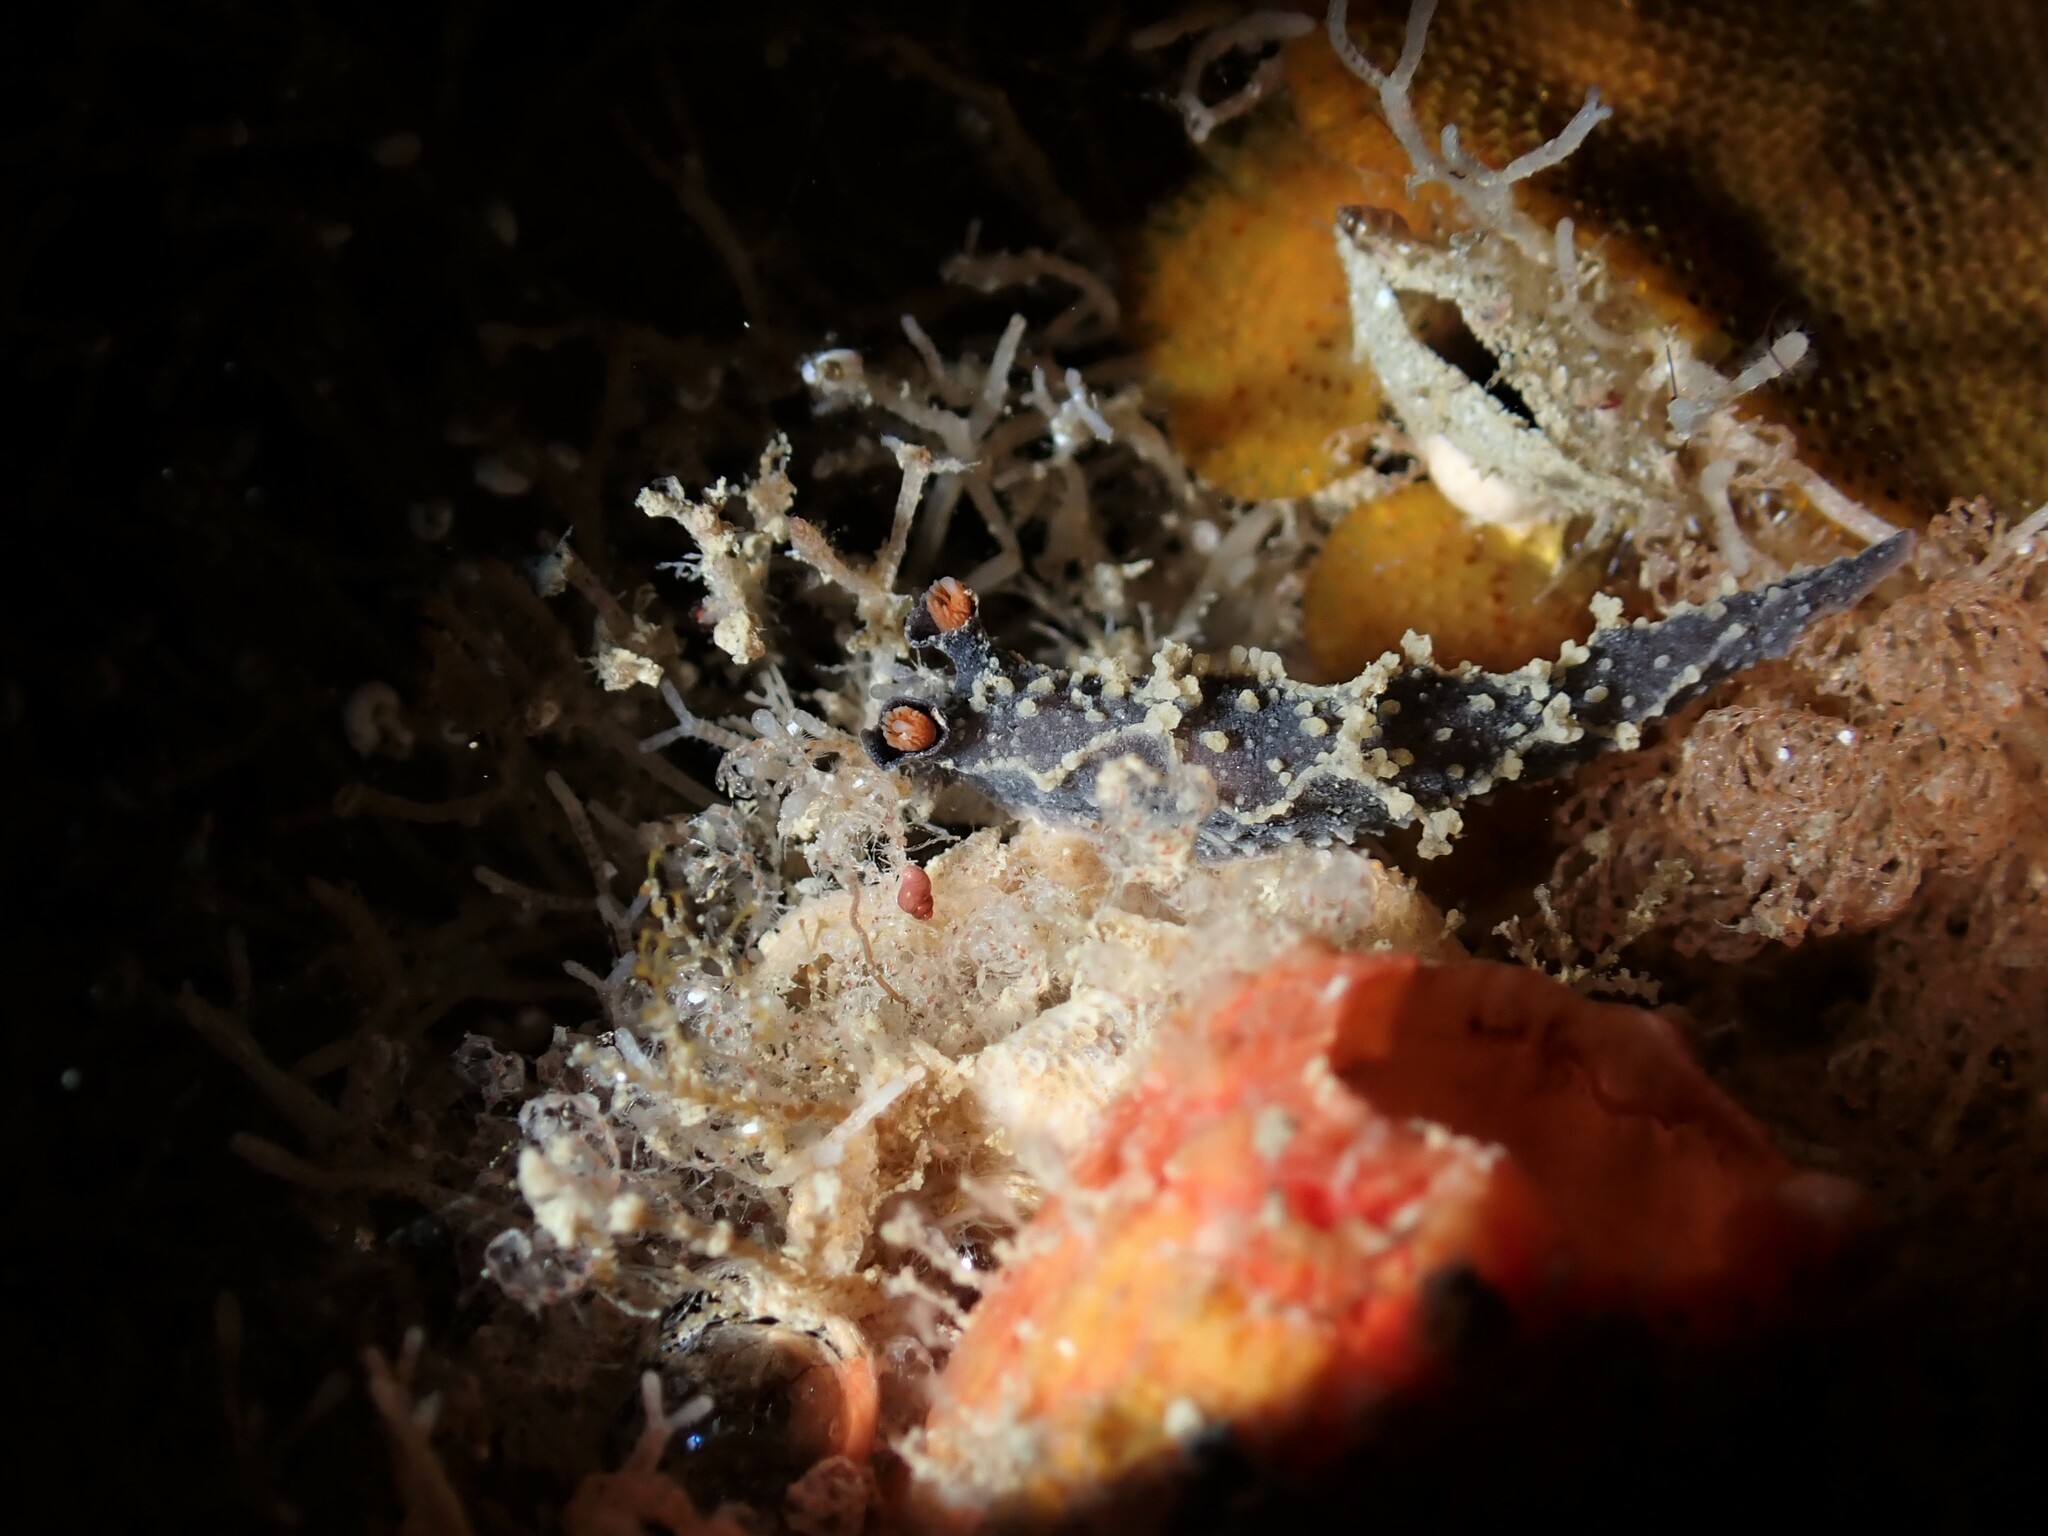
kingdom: Animalia
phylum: Mollusca
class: Gastropoda
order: Nudibranchia
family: Tritoniidae
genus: Tritonia
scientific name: Tritonia flemingi
